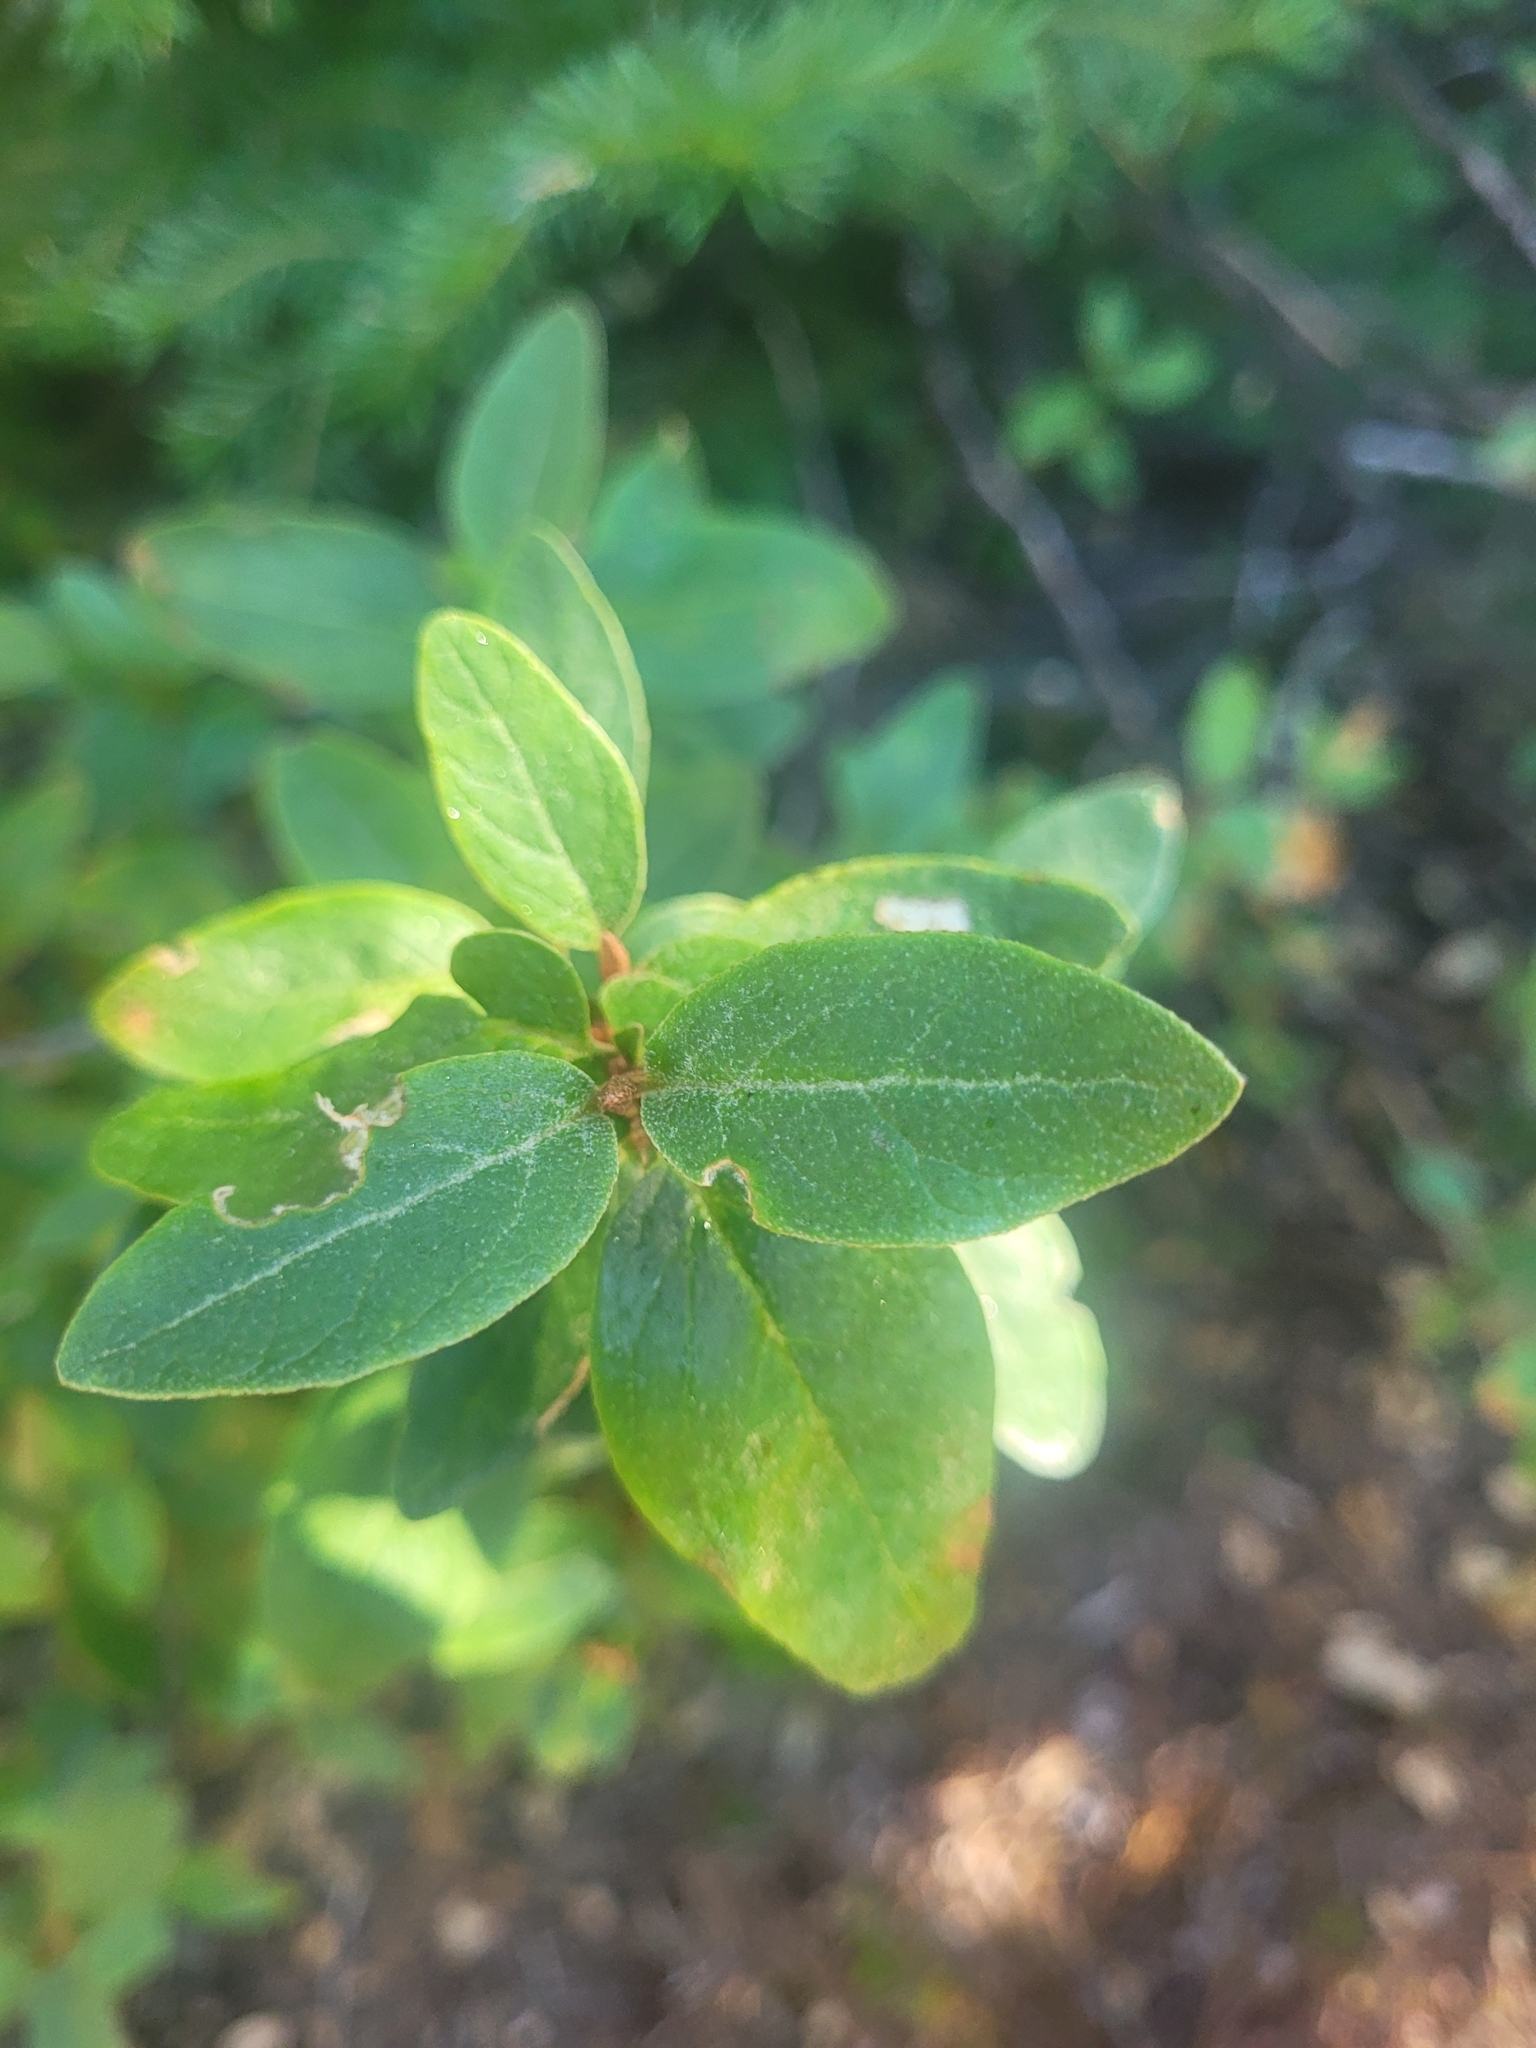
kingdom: Plantae
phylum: Tracheophyta
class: Magnoliopsida
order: Rosales
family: Elaeagnaceae
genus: Shepherdia
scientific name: Shepherdia canadensis
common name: Soapberry
